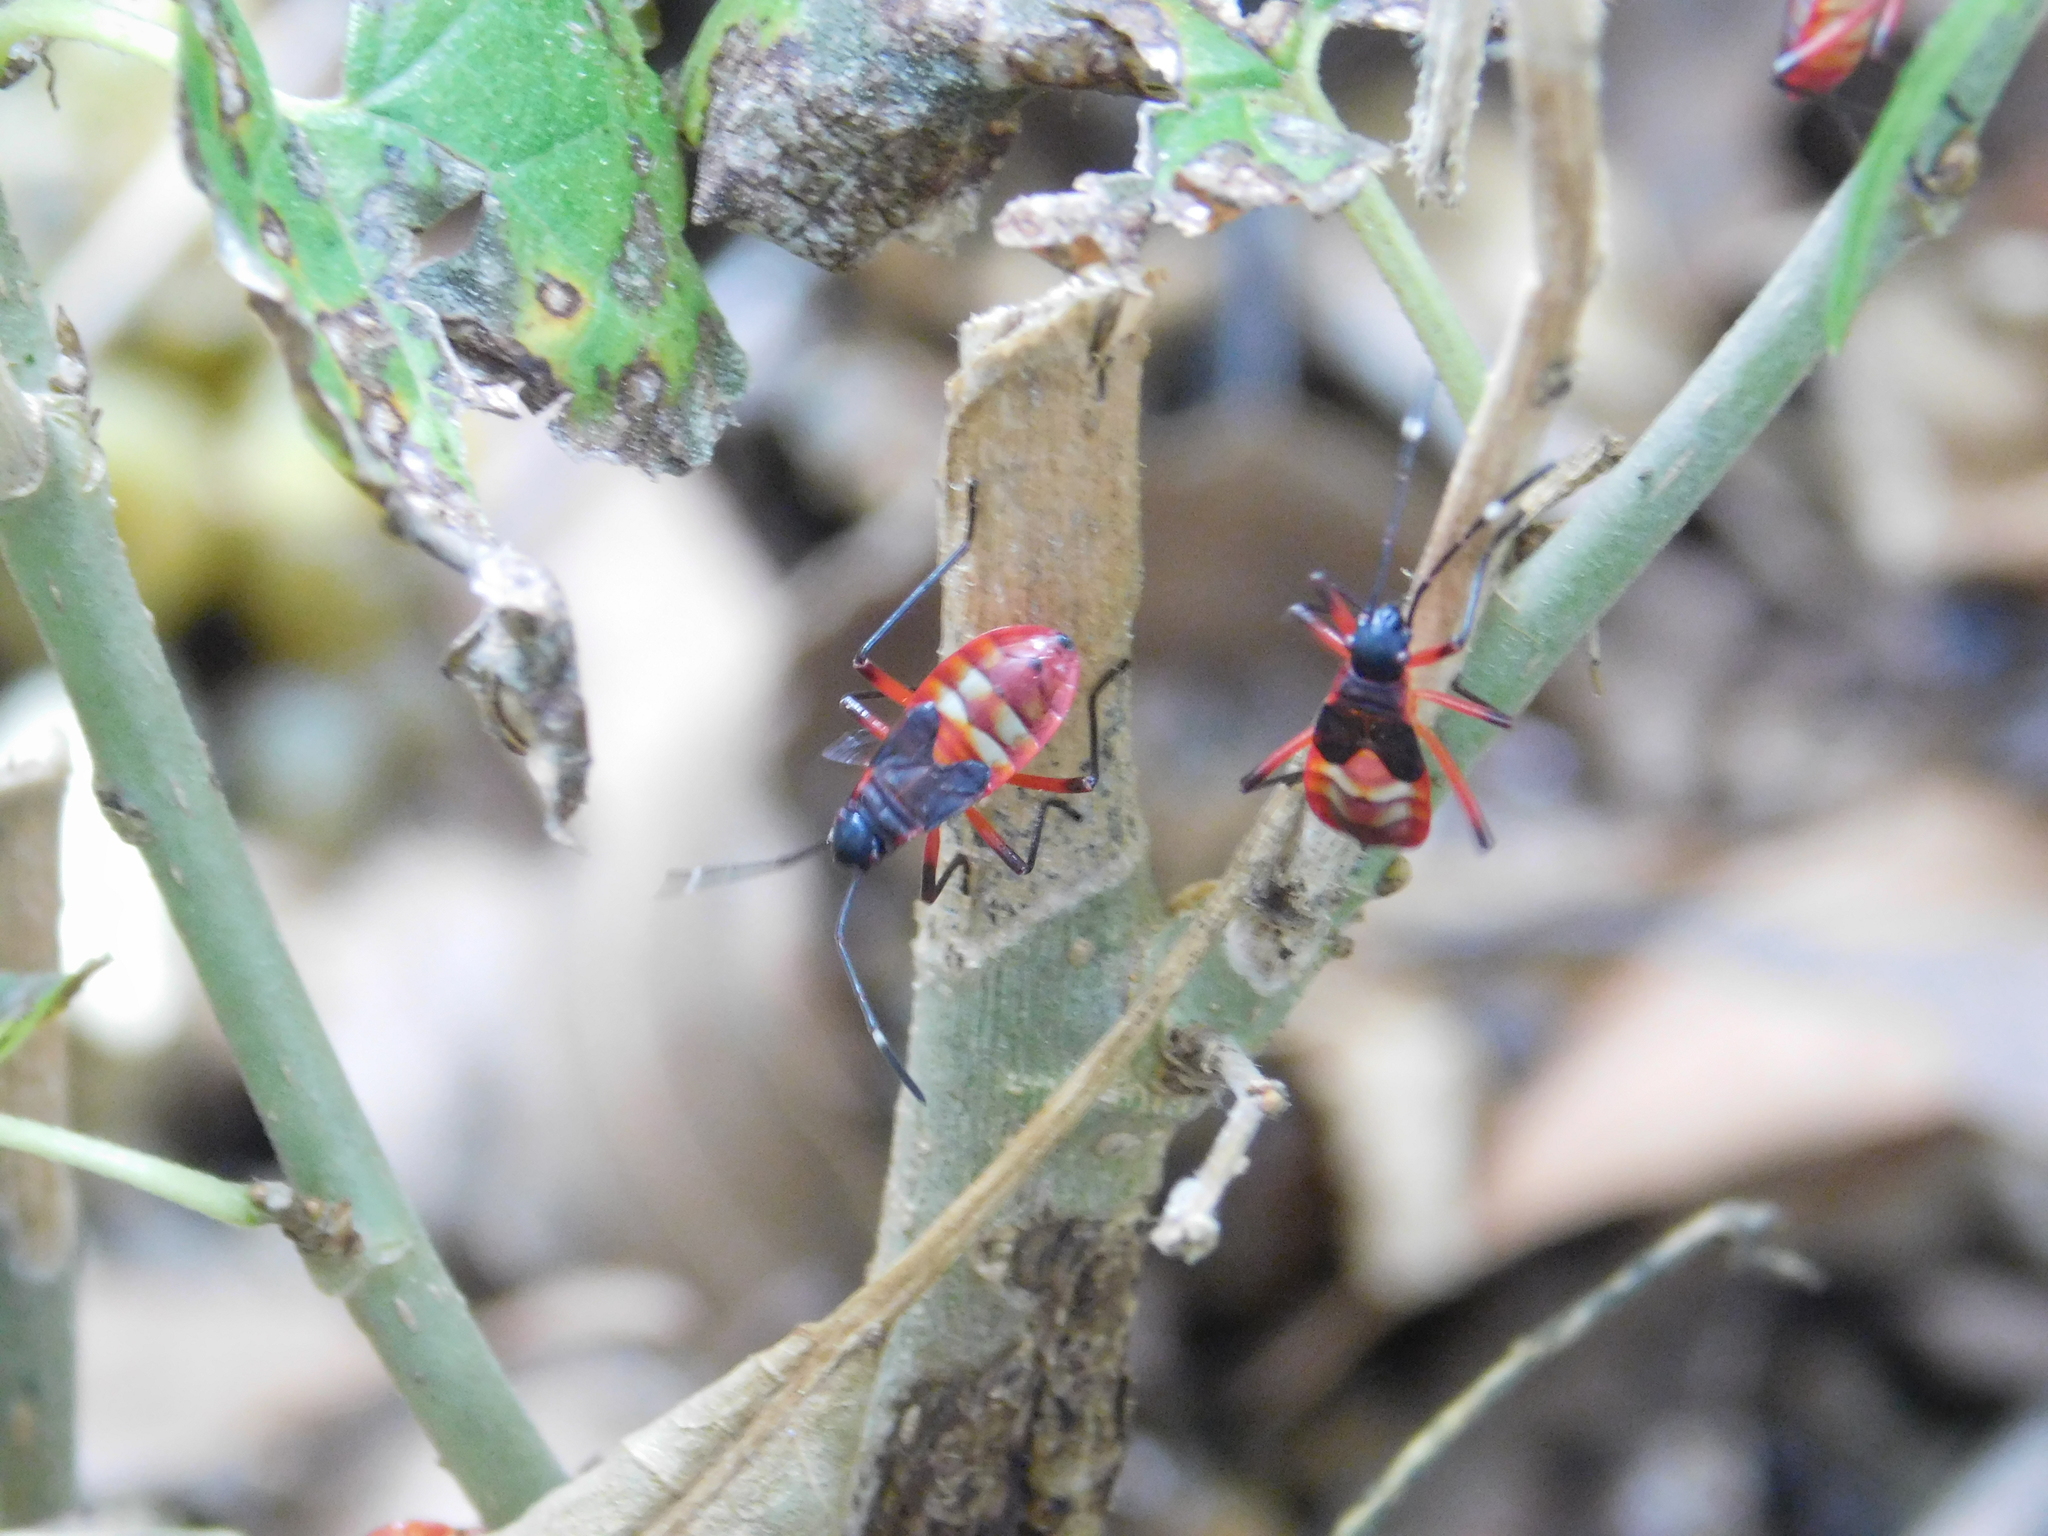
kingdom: Animalia
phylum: Arthropoda
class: Insecta
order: Hemiptera
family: Pyrrhocoridae
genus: Dysdercus
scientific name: Dysdercus
